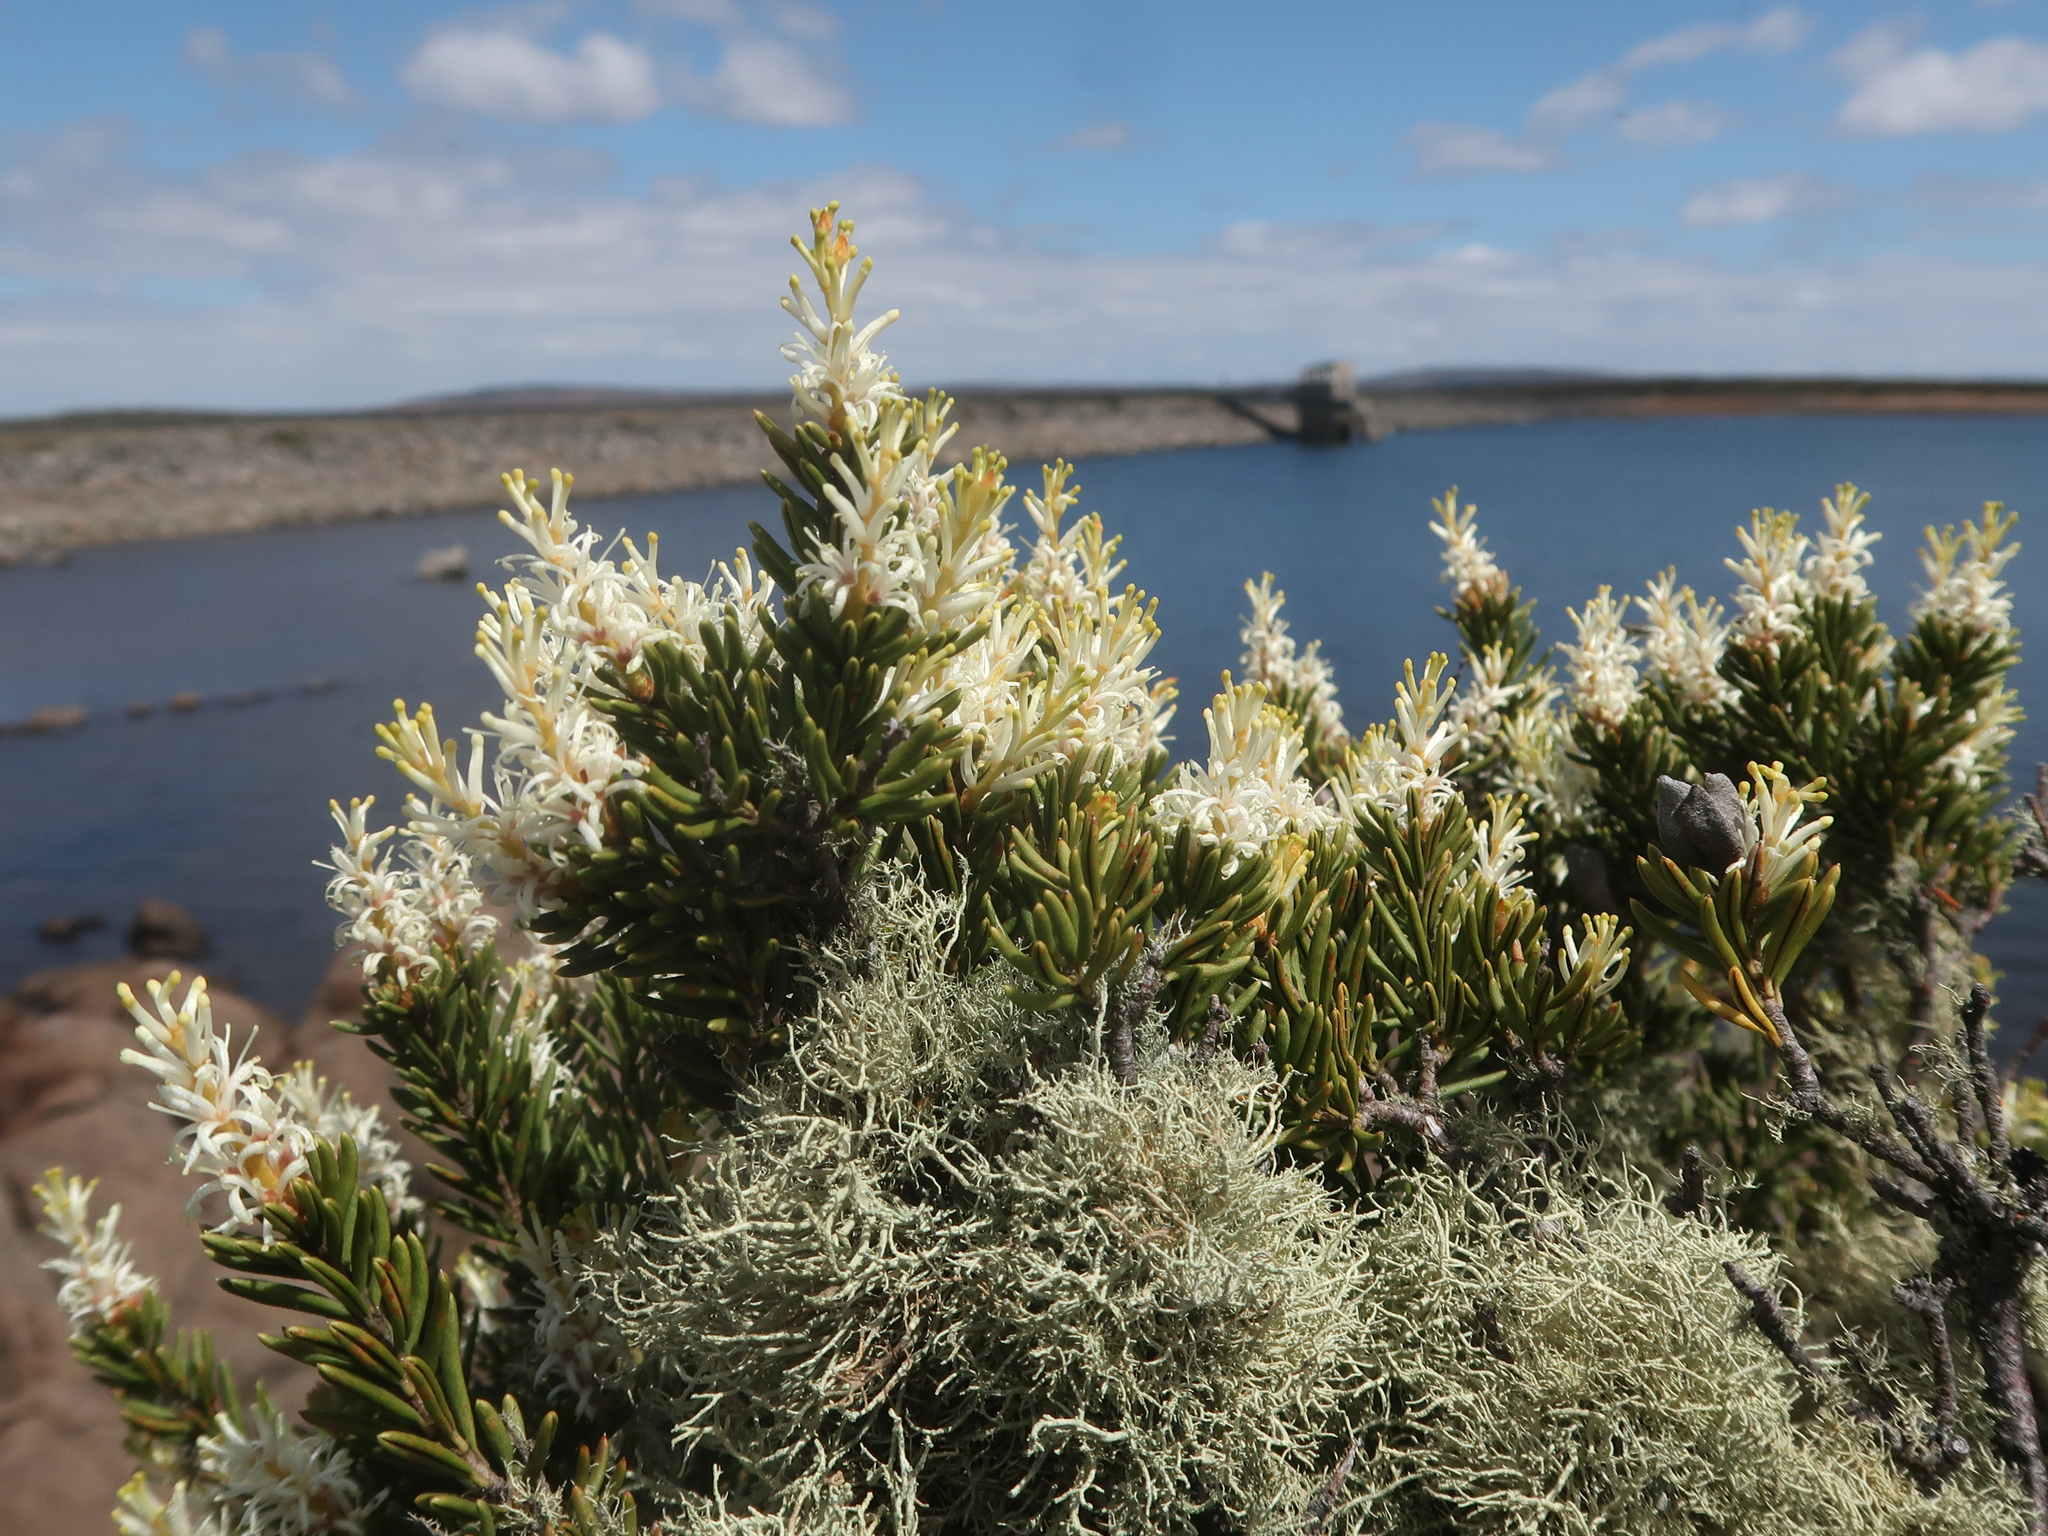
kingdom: Plantae
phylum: Tracheophyta
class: Magnoliopsida
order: Proteales
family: Proteaceae
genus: Orites
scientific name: Orites revolutus
